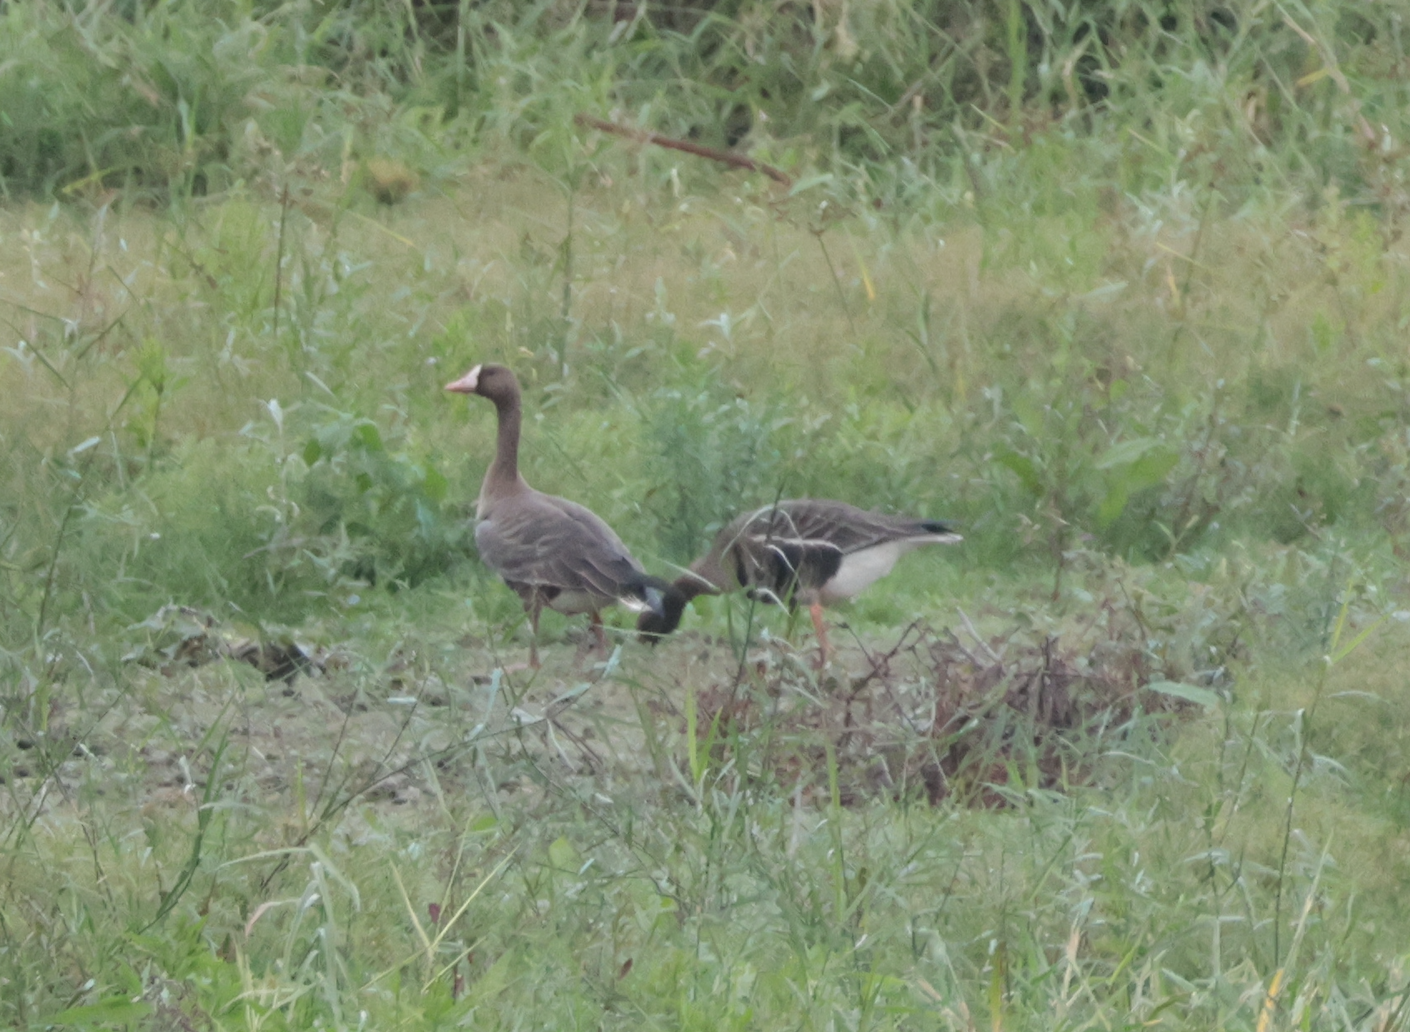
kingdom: Animalia
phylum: Chordata
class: Aves
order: Anseriformes
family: Anatidae
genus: Anser
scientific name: Anser albifrons
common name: Greater white-fronted goose
